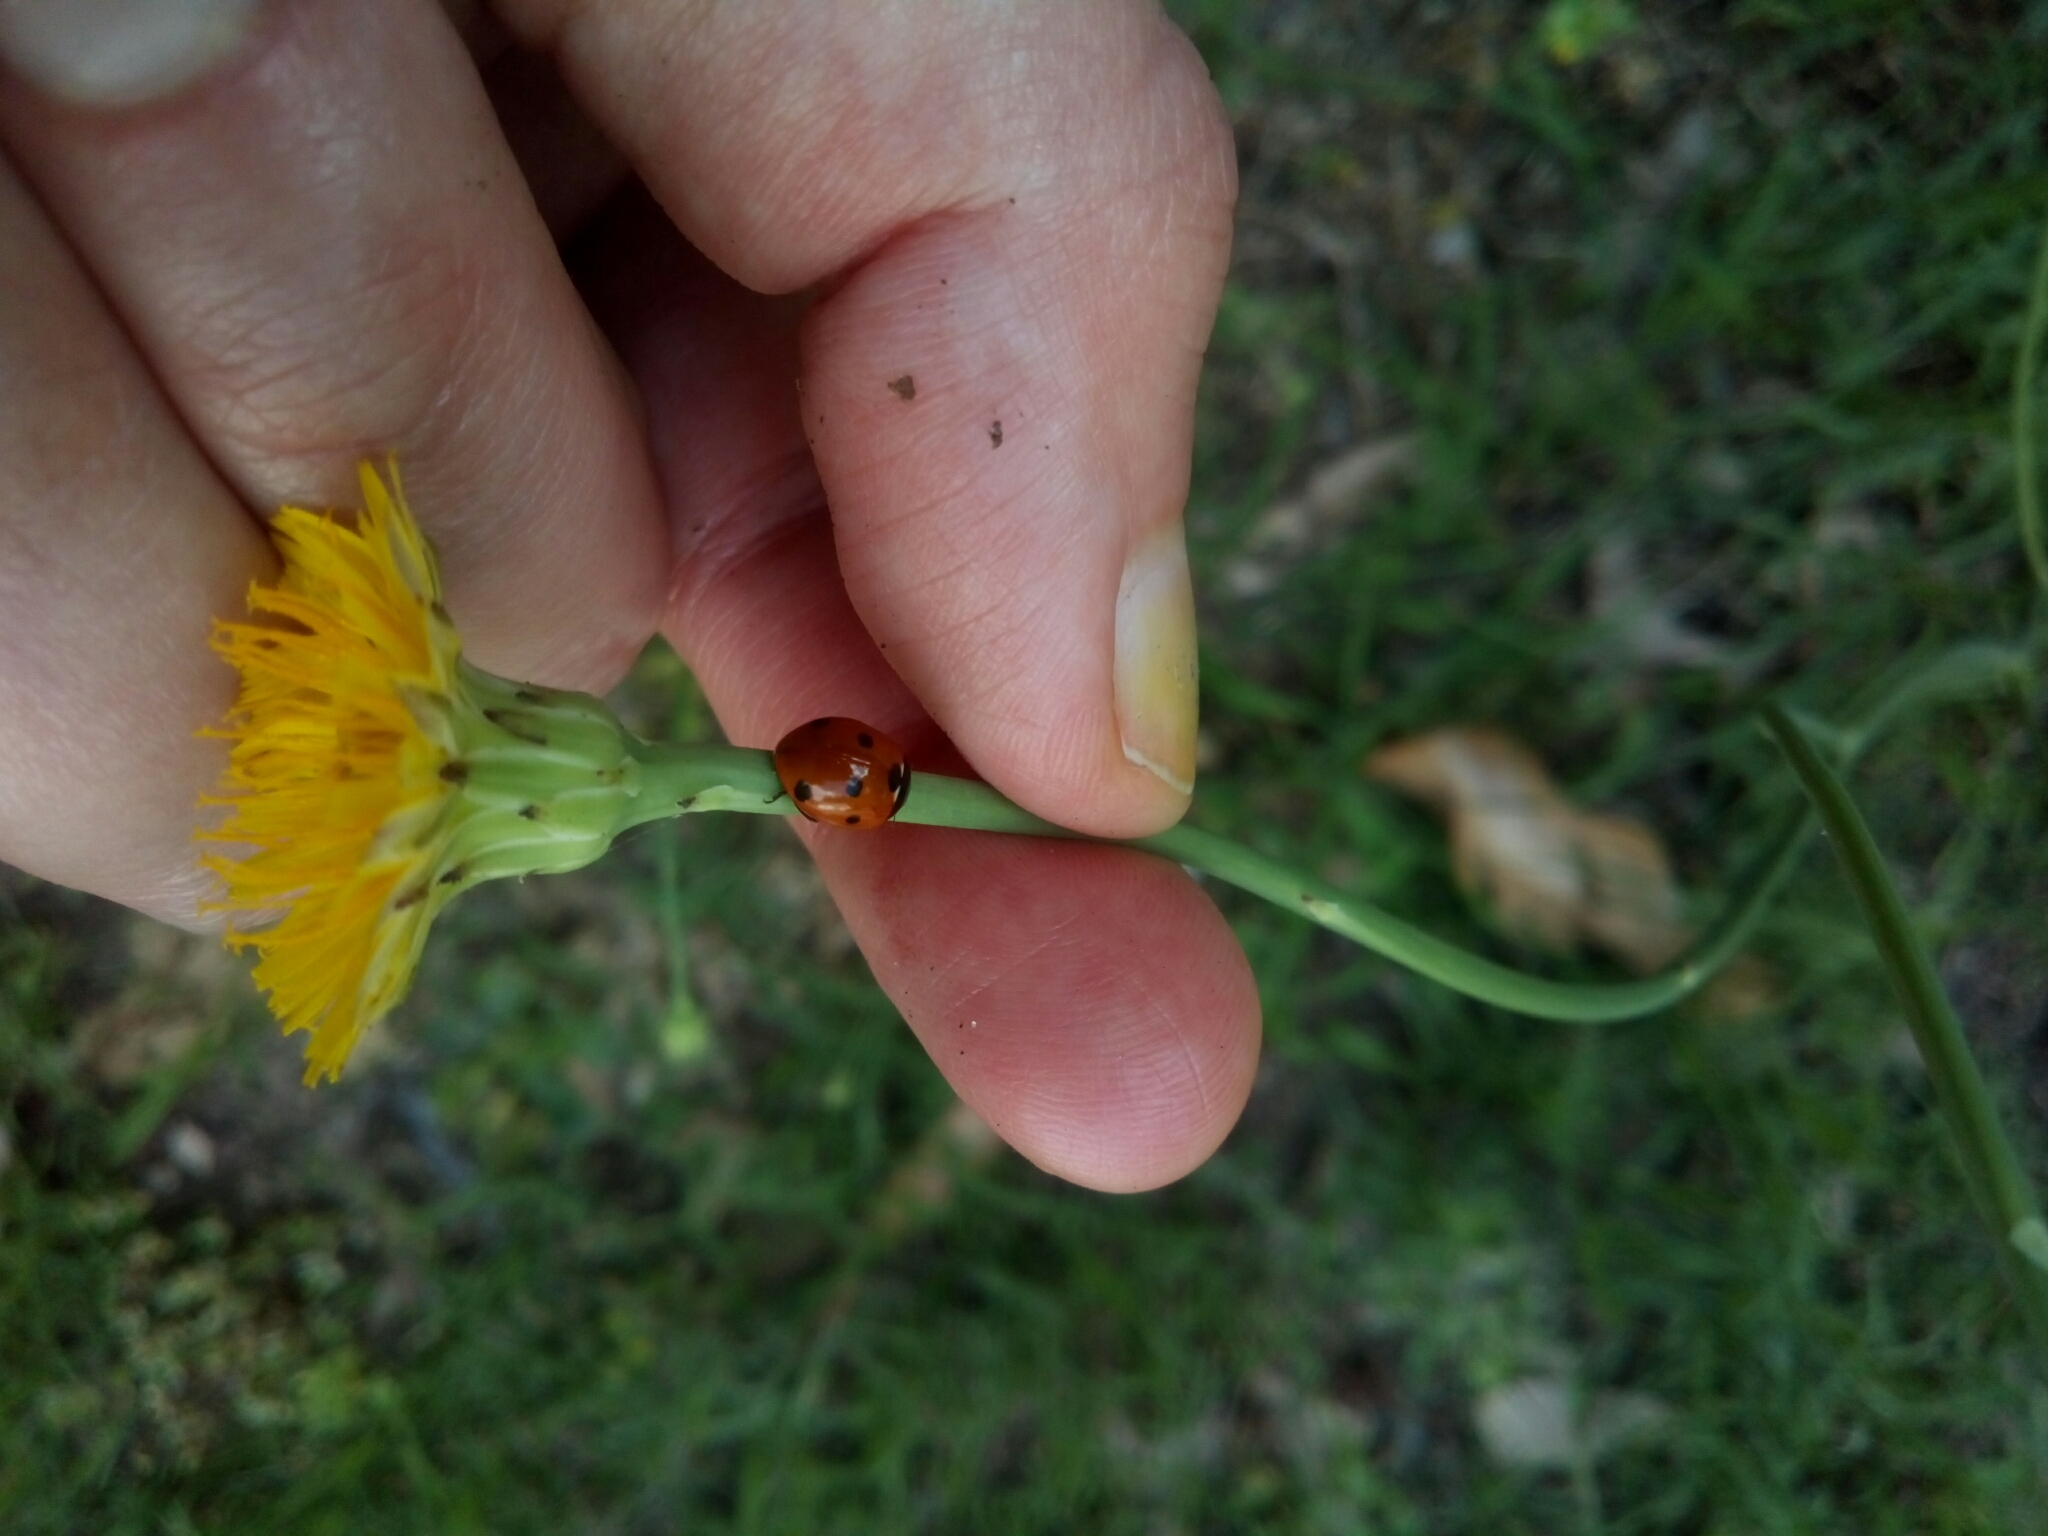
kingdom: Animalia
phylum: Arthropoda
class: Insecta
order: Coleoptera
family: Coccinellidae
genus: Coccinella
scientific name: Coccinella septempunctata
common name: Sevenspotted lady beetle
